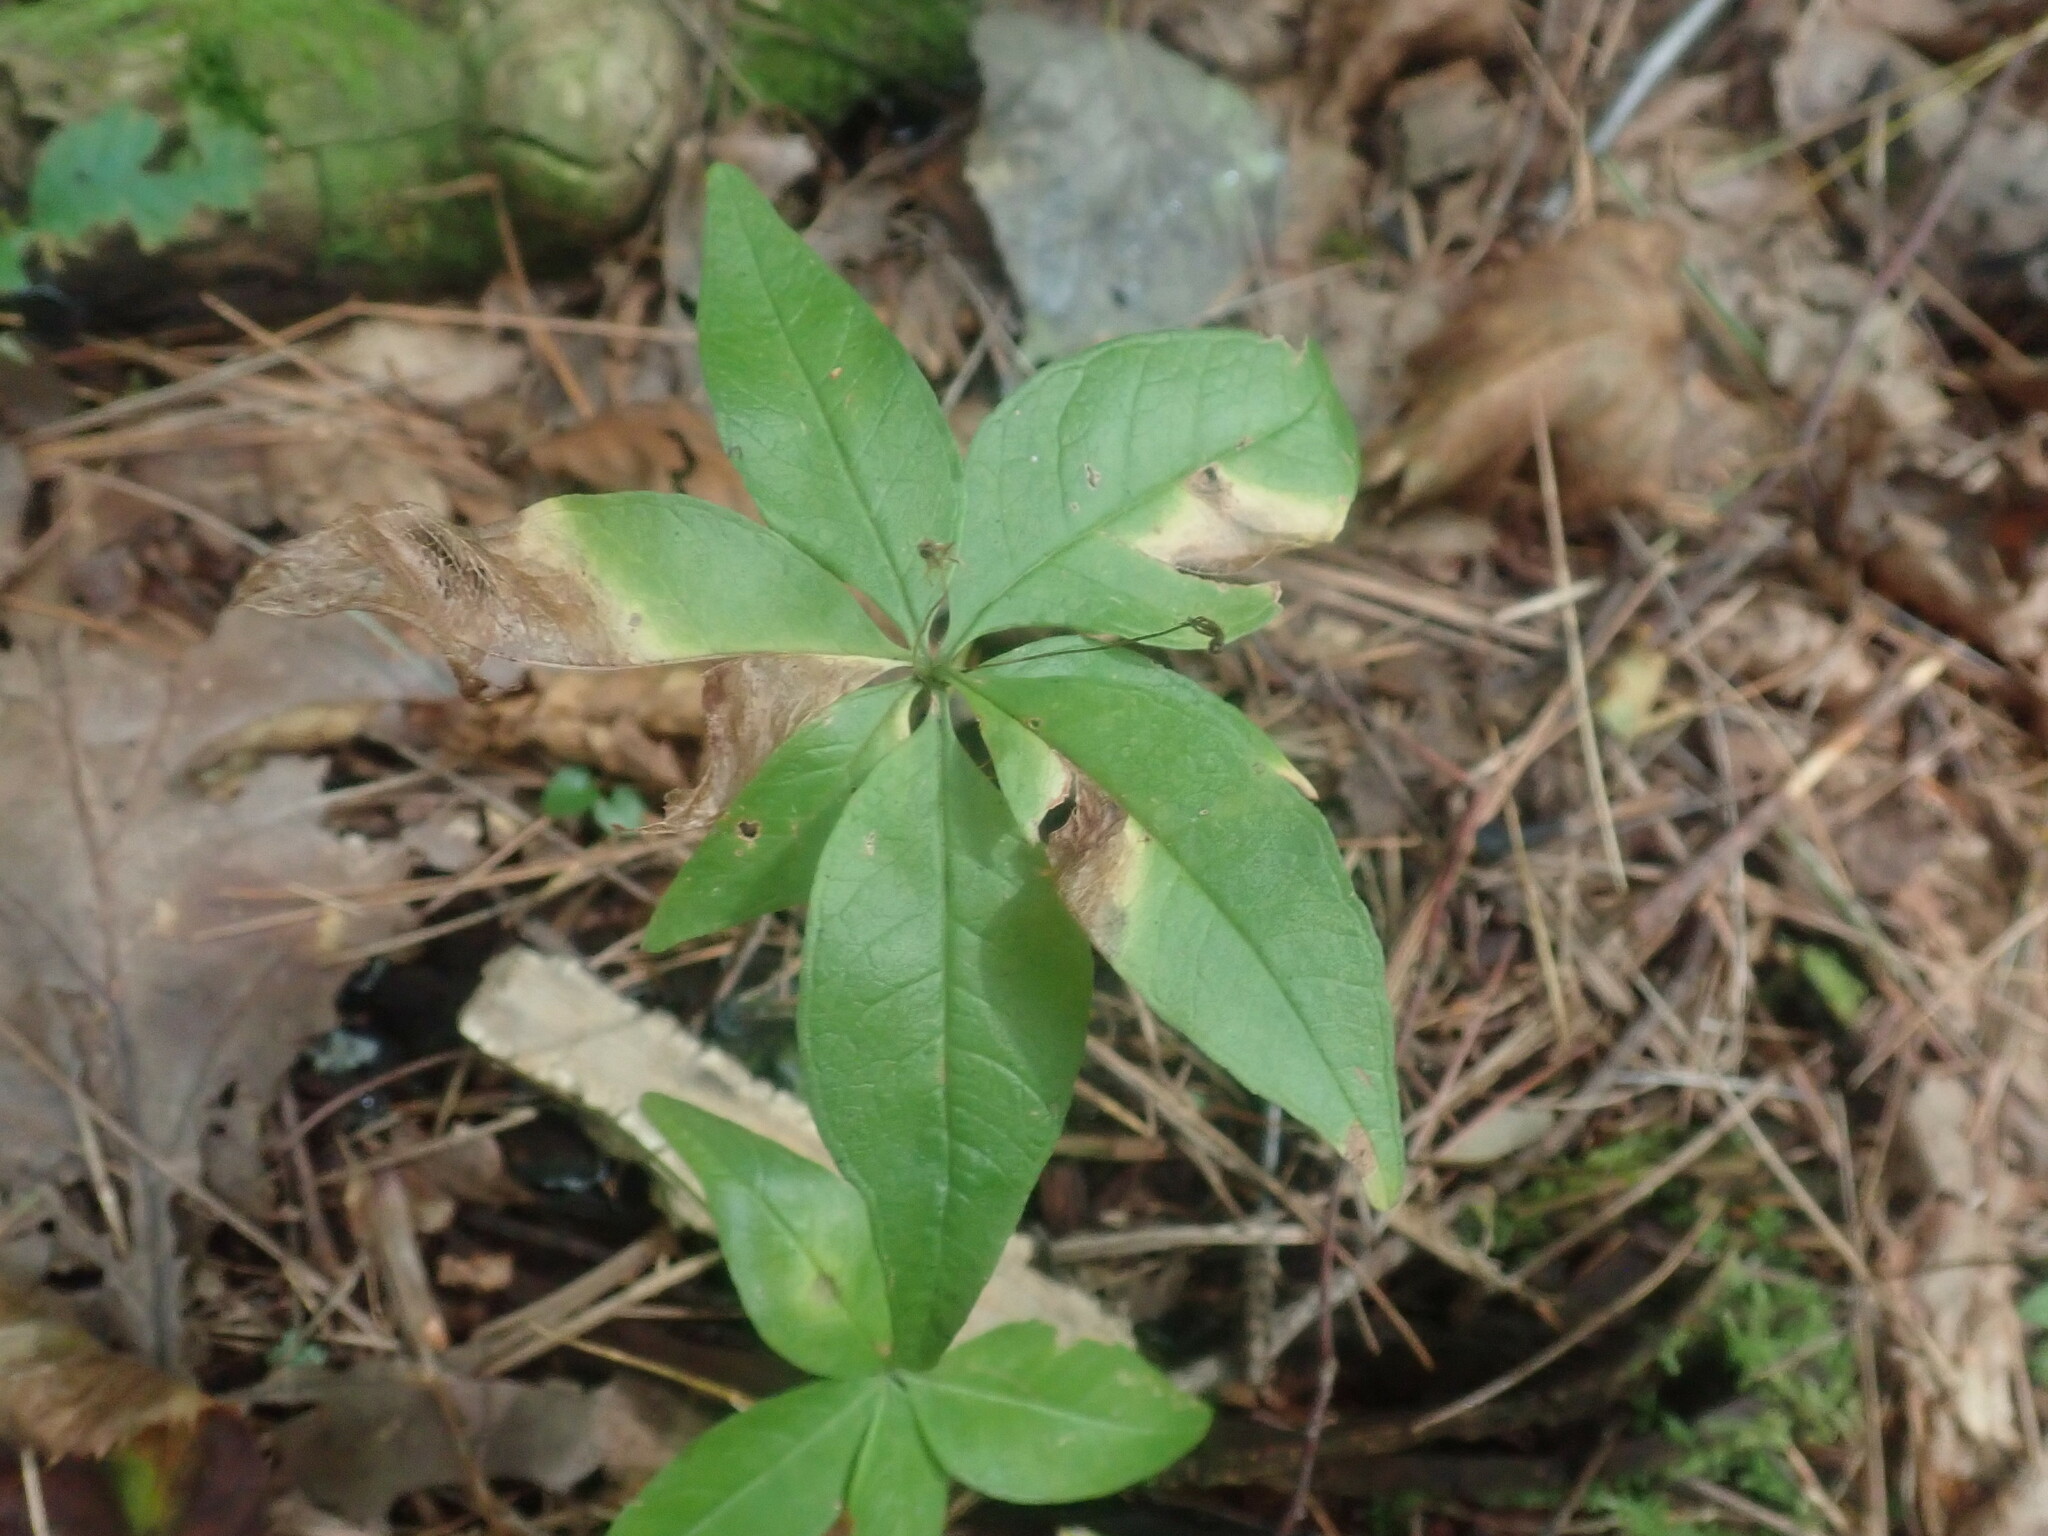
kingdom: Plantae
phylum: Tracheophyta
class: Magnoliopsida
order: Ericales
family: Primulaceae
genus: Lysimachia
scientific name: Lysimachia borealis
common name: American starflower
